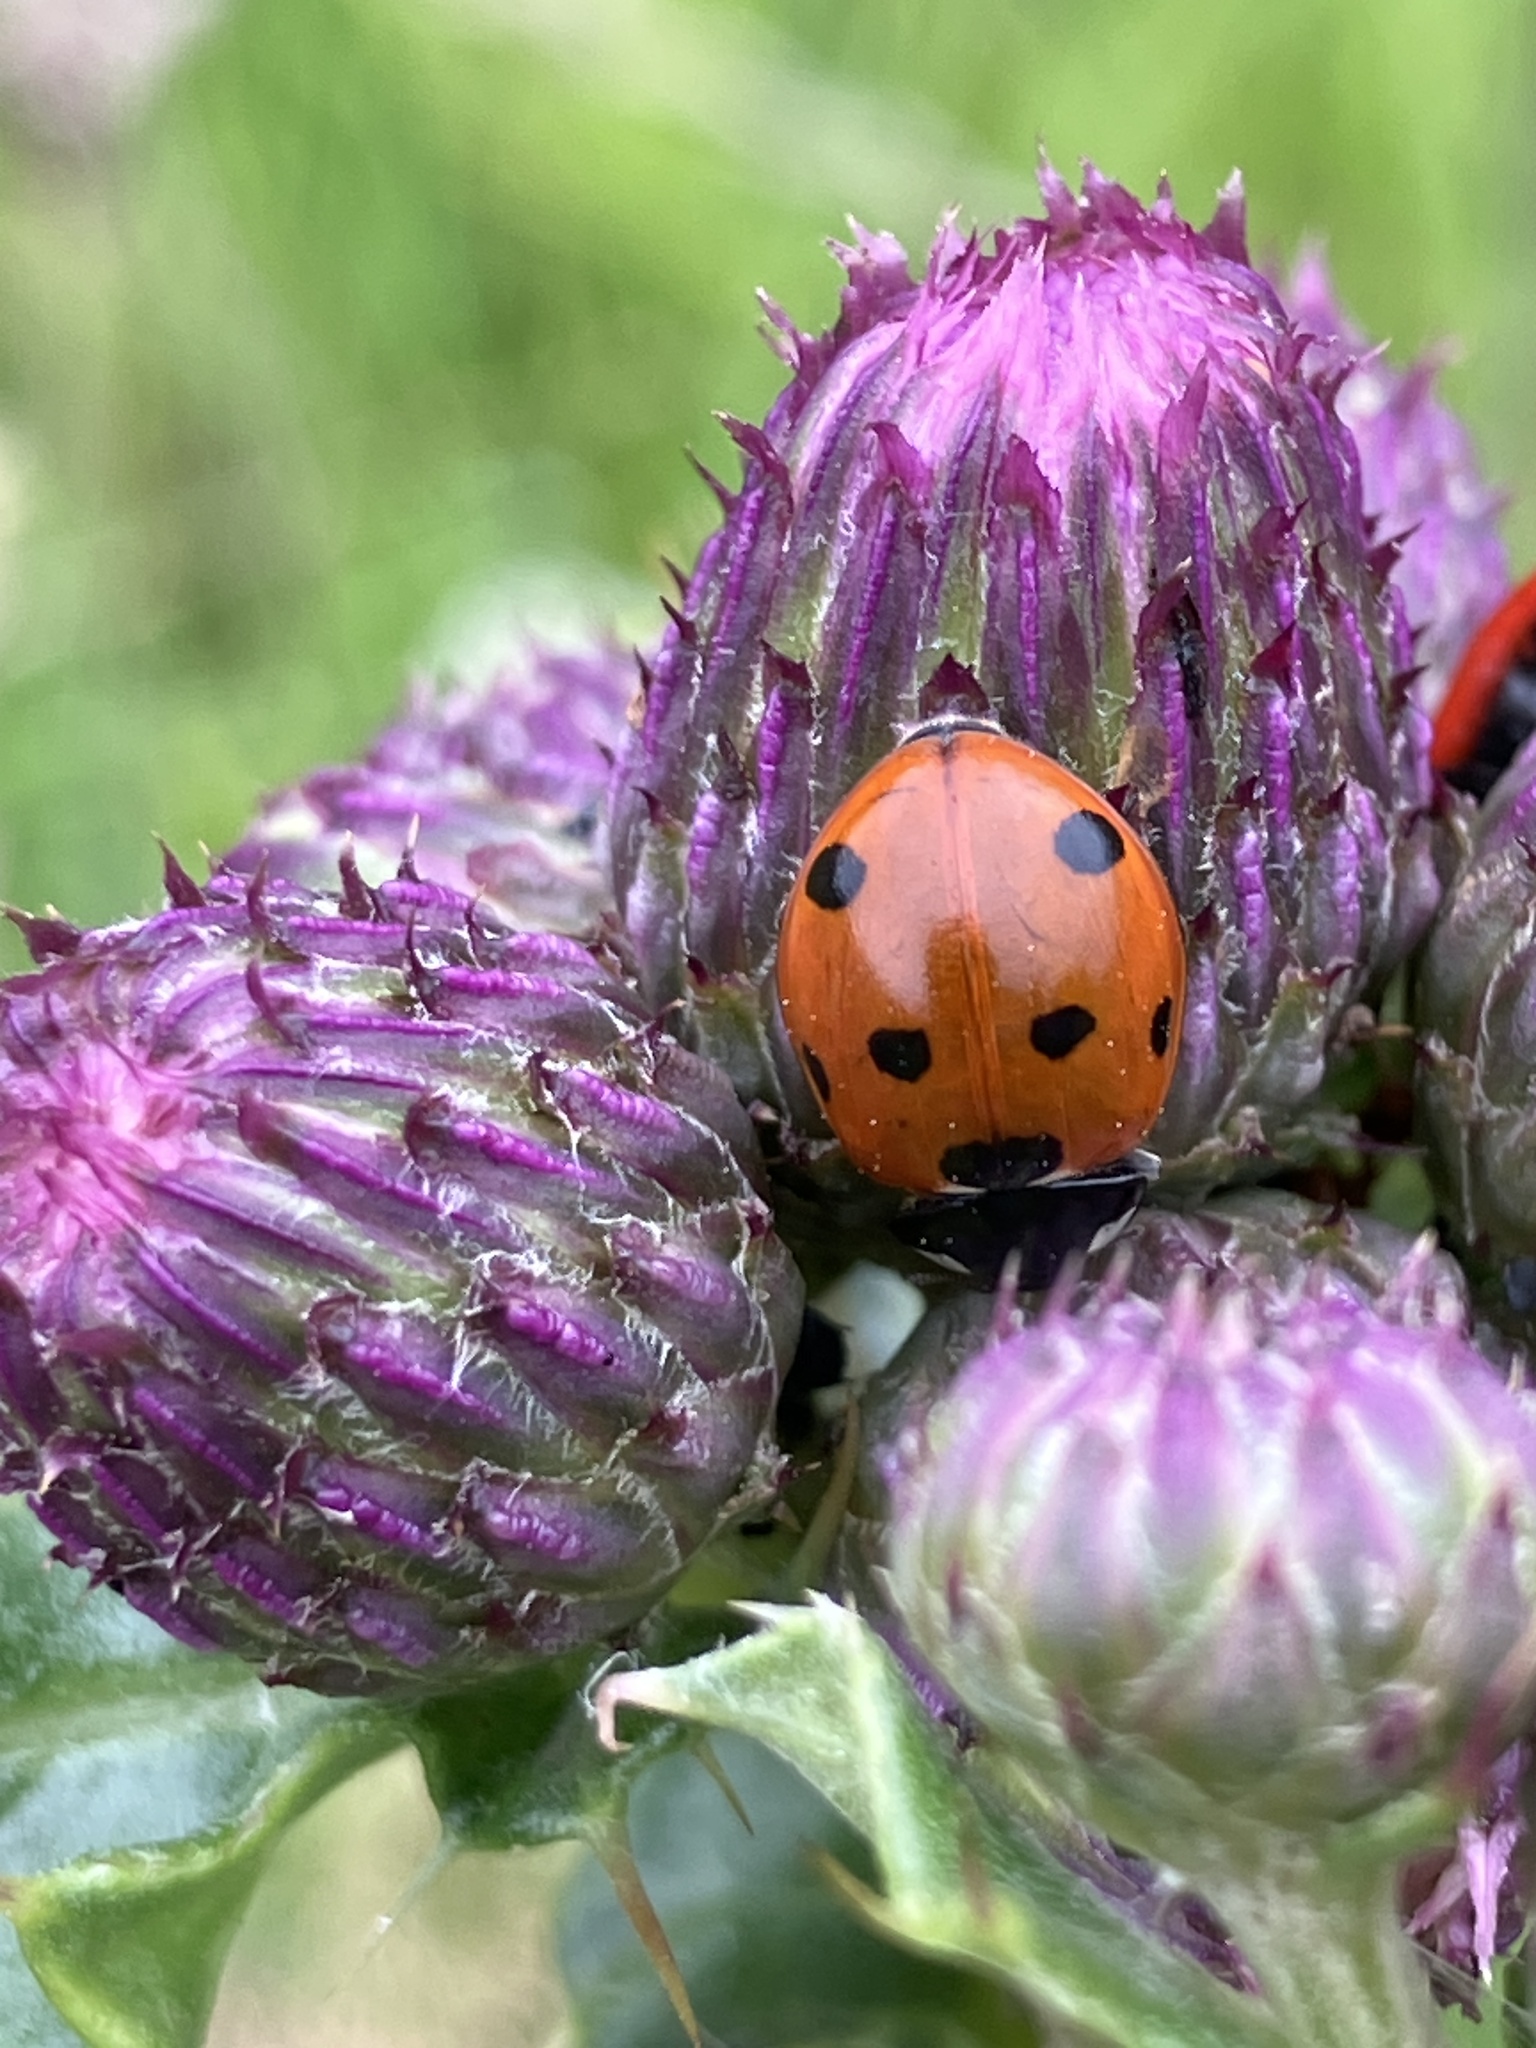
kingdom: Animalia
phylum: Arthropoda
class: Insecta
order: Coleoptera
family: Coccinellidae
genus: Coccinella
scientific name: Coccinella septempunctata
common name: Sevenspotted lady beetle
